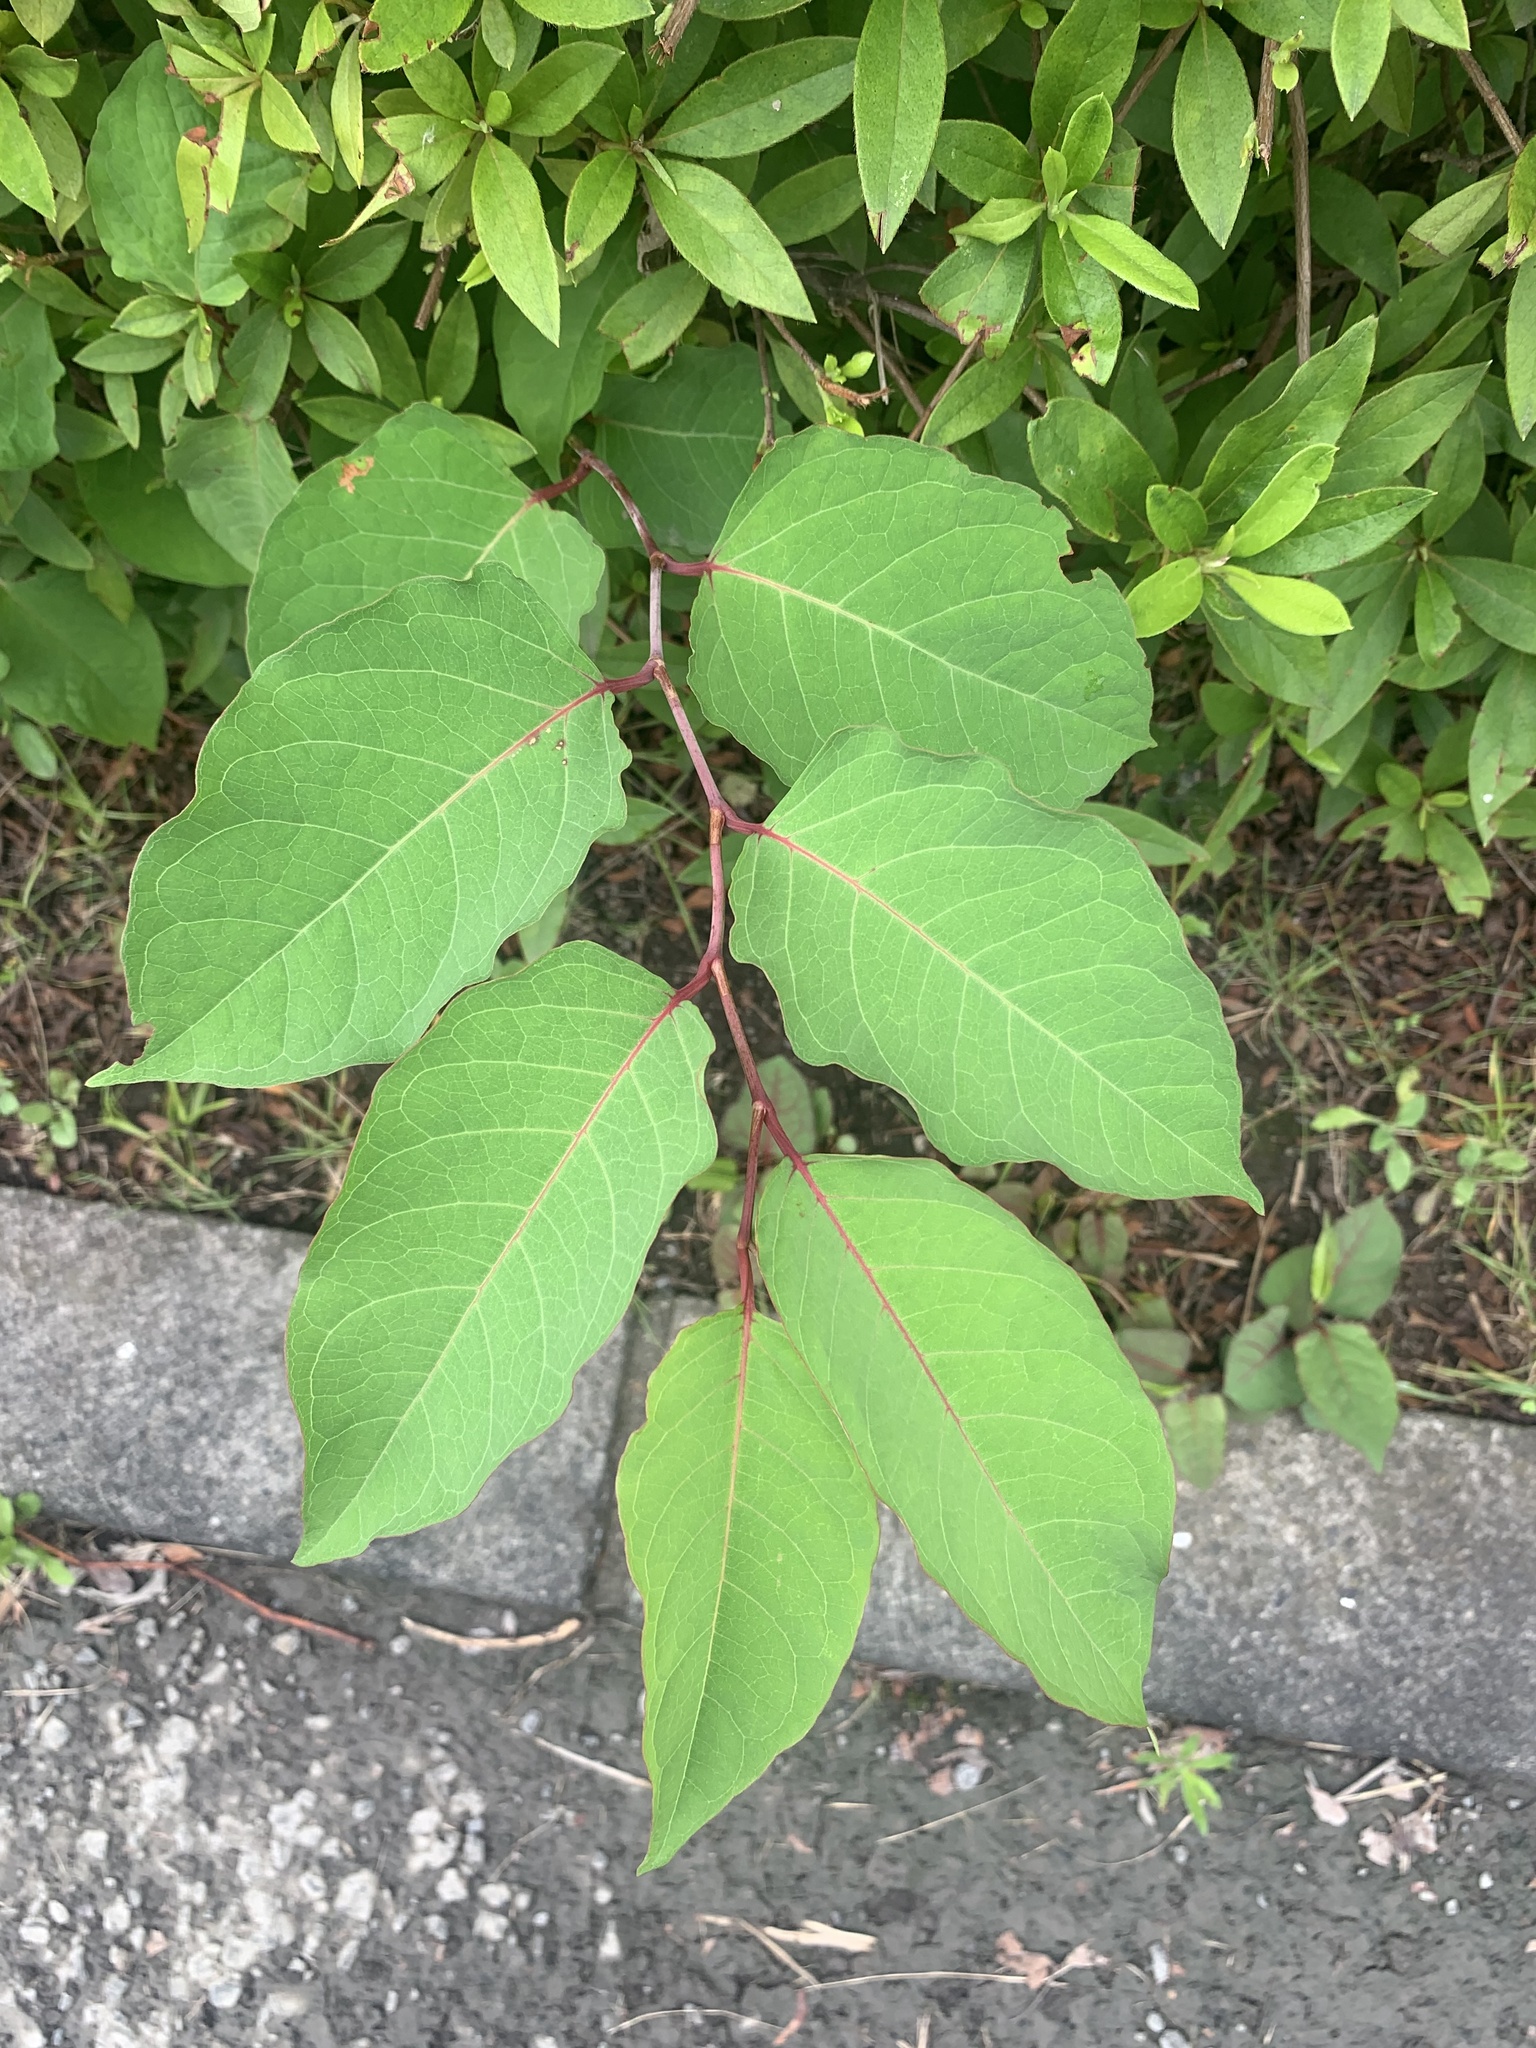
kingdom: Plantae
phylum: Tracheophyta
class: Magnoliopsida
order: Caryophyllales
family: Polygonaceae
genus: Reynoutria
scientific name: Reynoutria japonica
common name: Japanese knotweed
